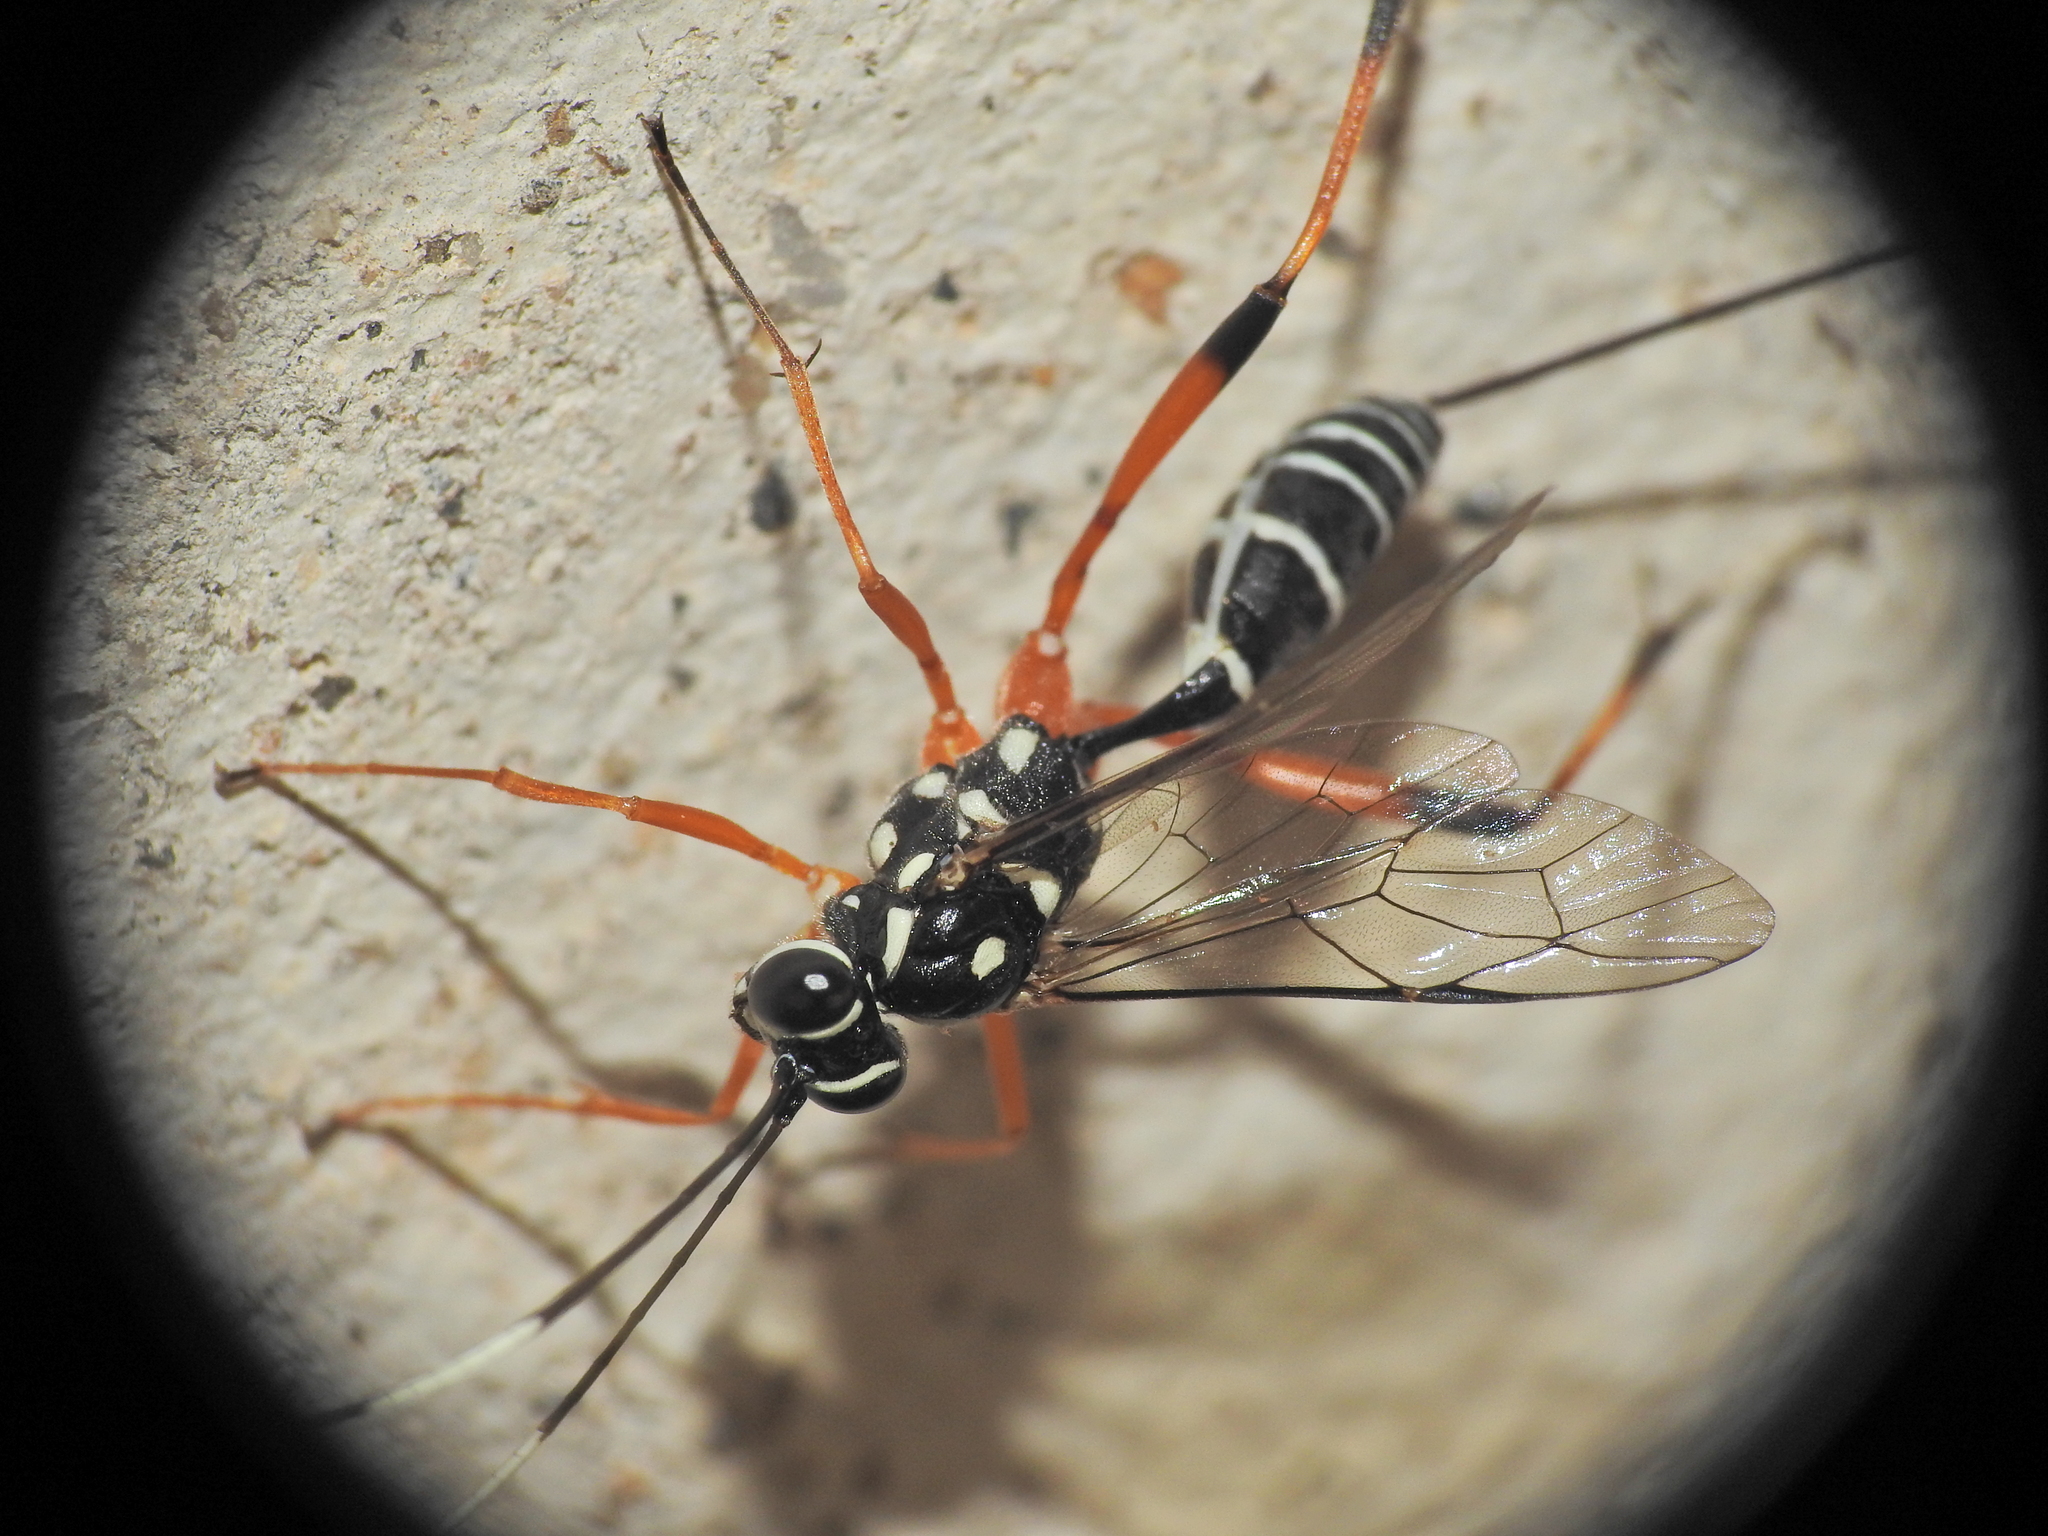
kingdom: Animalia
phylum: Arthropoda
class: Insecta
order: Hymenoptera
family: Ichneumonidae
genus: Stenarella
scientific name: Stenarella victoriae
